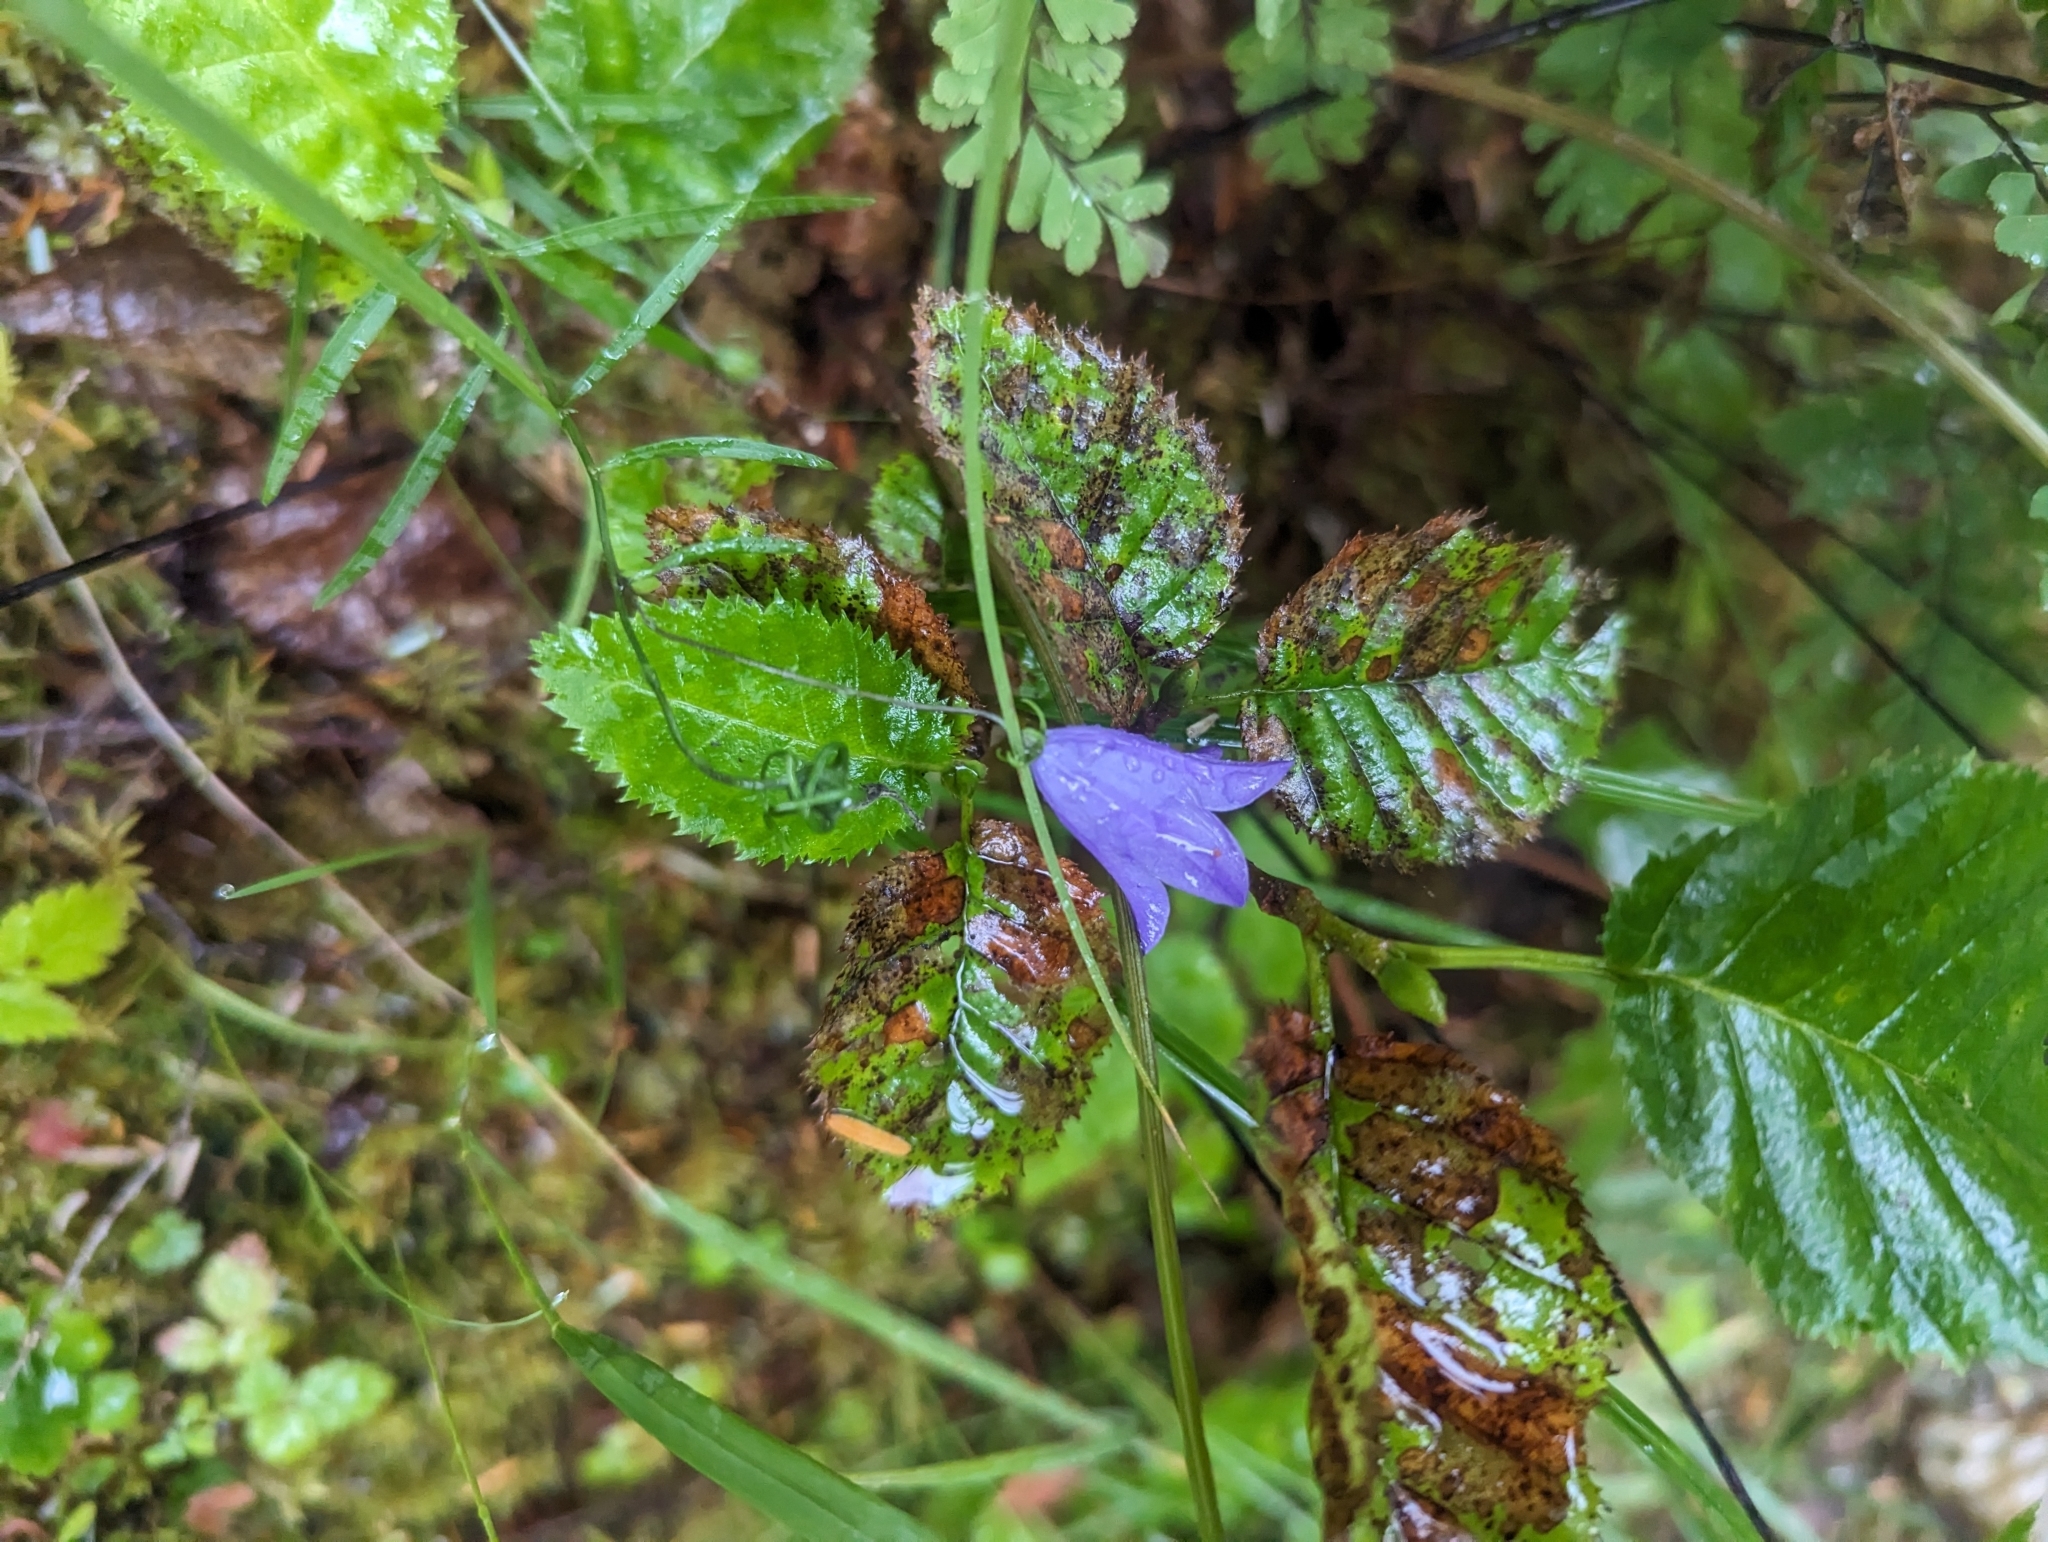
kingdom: Plantae
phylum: Tracheophyta
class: Magnoliopsida
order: Asterales
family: Campanulaceae
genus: Campanula
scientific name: Campanula alaskana
